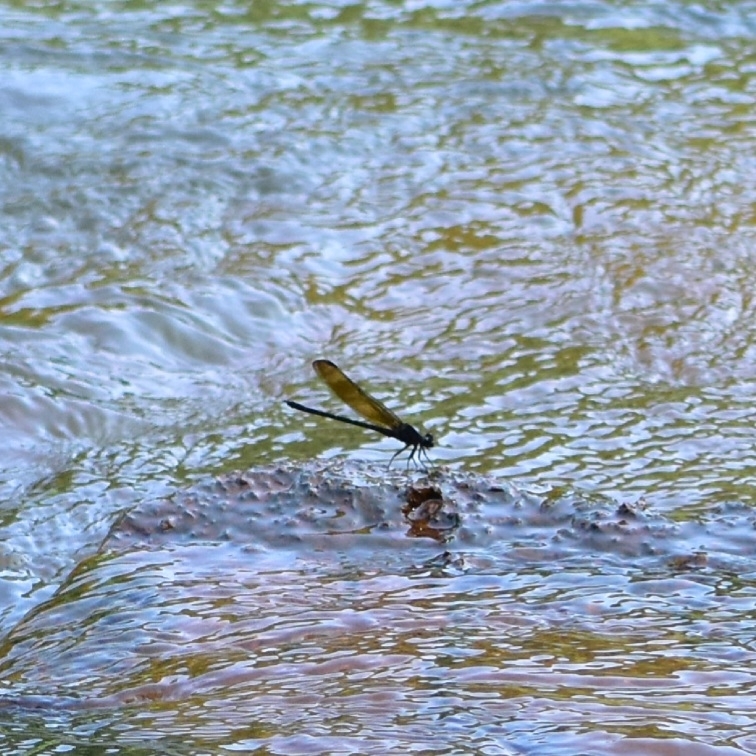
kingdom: Animalia
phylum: Arthropoda
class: Insecta
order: Odonata
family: Euphaeidae
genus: Dysphaea
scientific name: Dysphaea ethela
